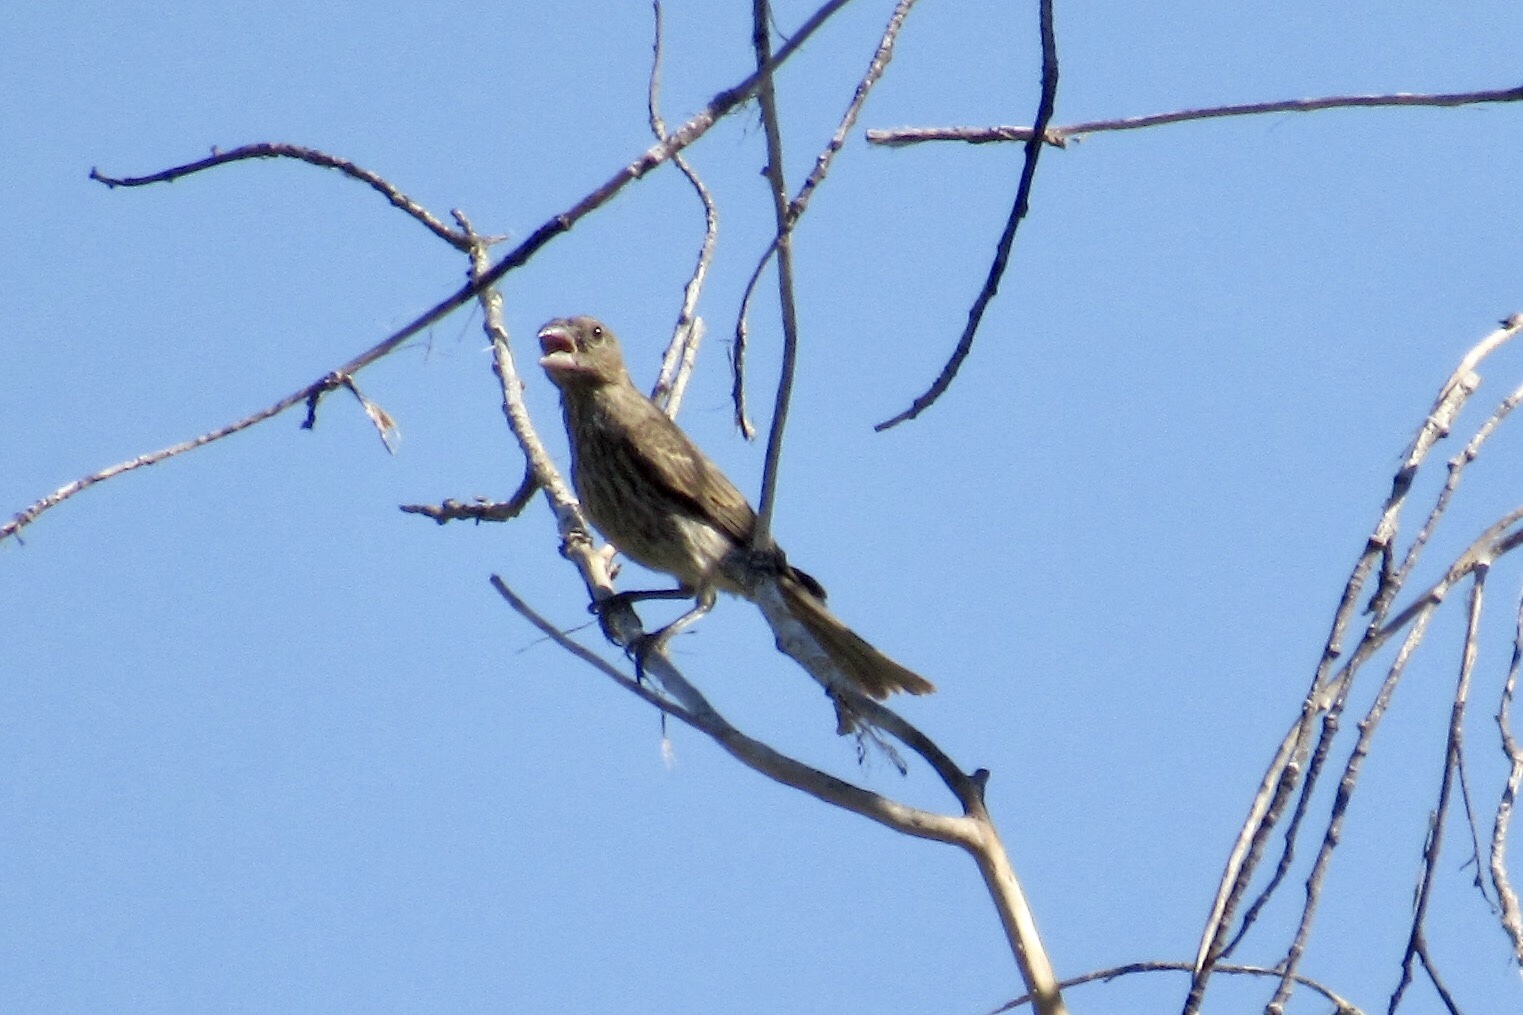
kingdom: Animalia
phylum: Chordata
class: Aves
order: Passeriformes
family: Fringillidae
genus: Haemorhous
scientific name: Haemorhous mexicanus
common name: House finch
